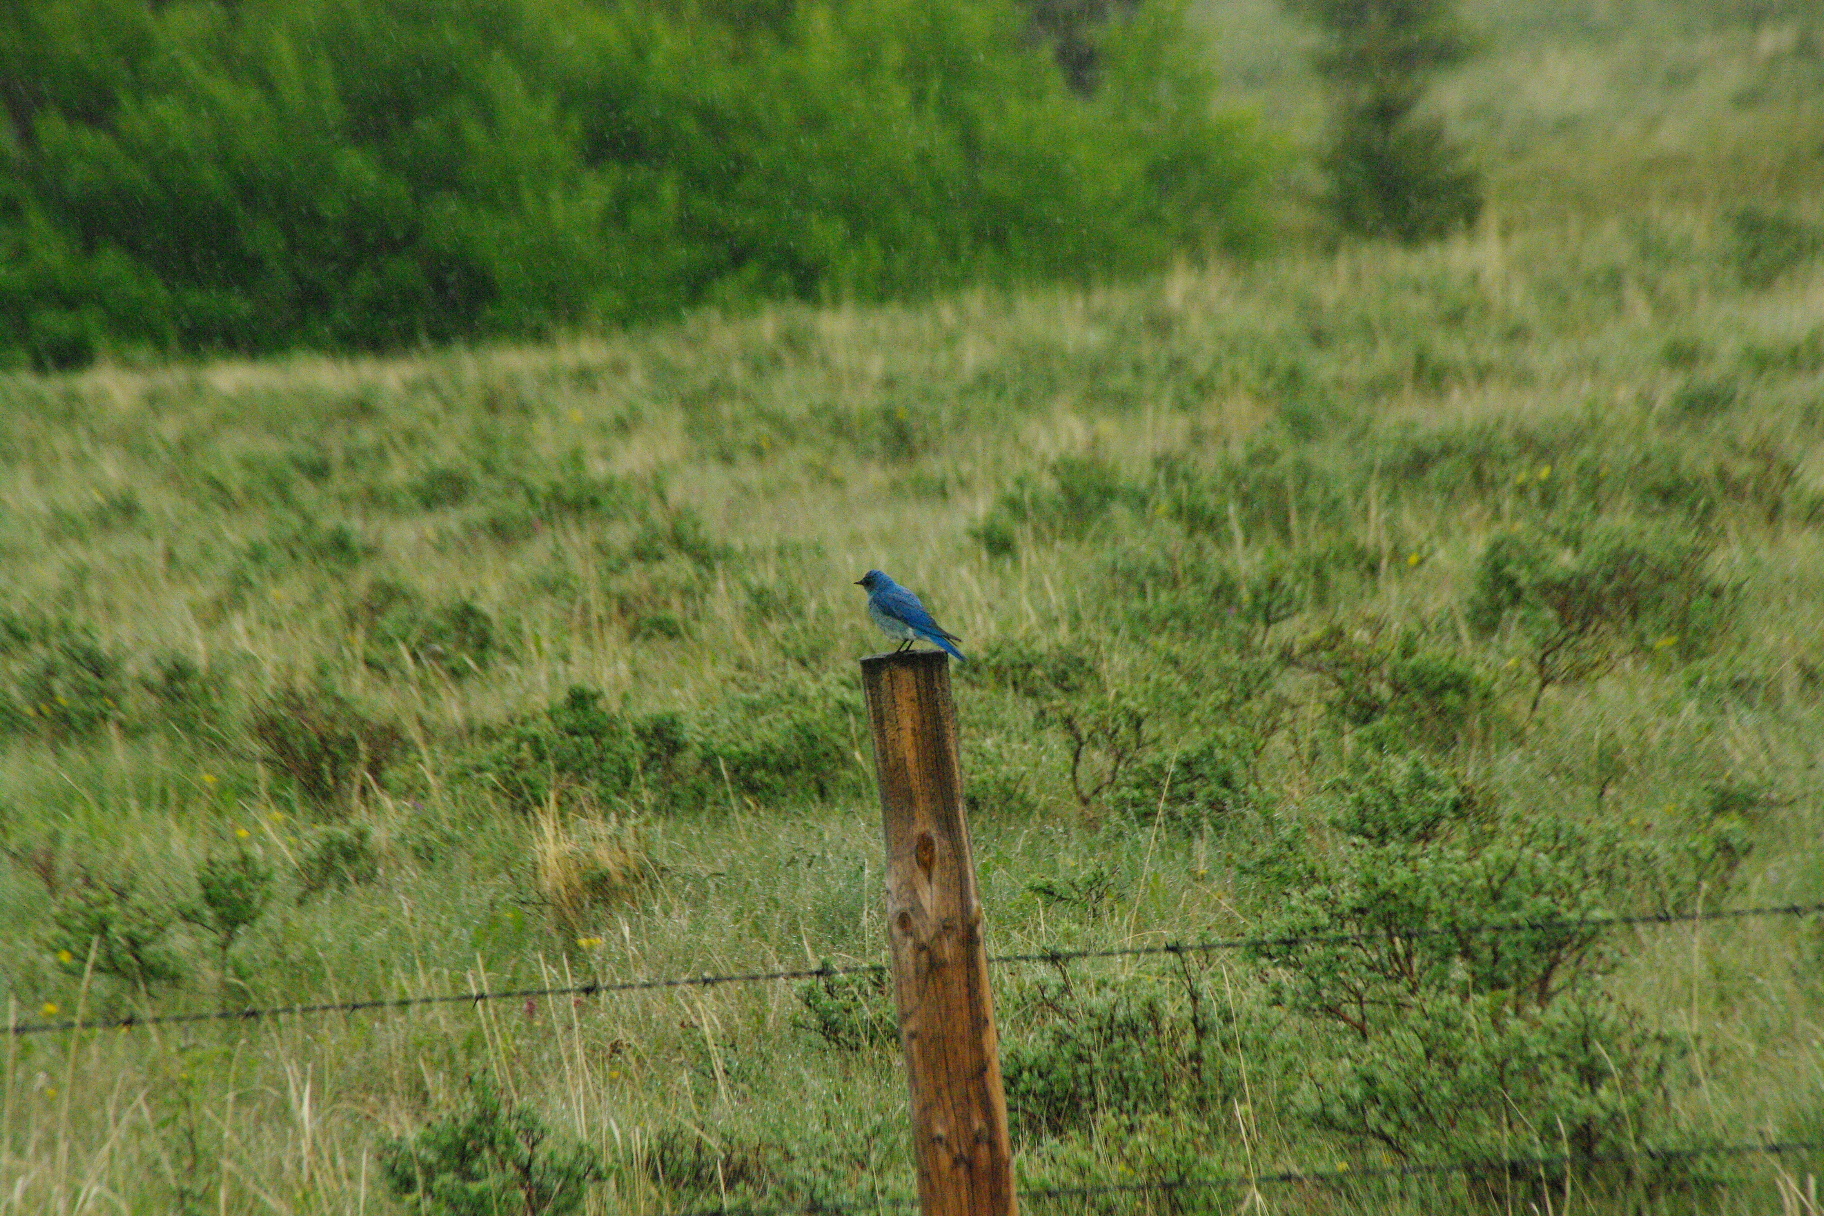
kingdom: Animalia
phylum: Chordata
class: Aves
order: Passeriformes
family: Turdidae
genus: Sialia
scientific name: Sialia currucoides
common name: Mountain bluebird
